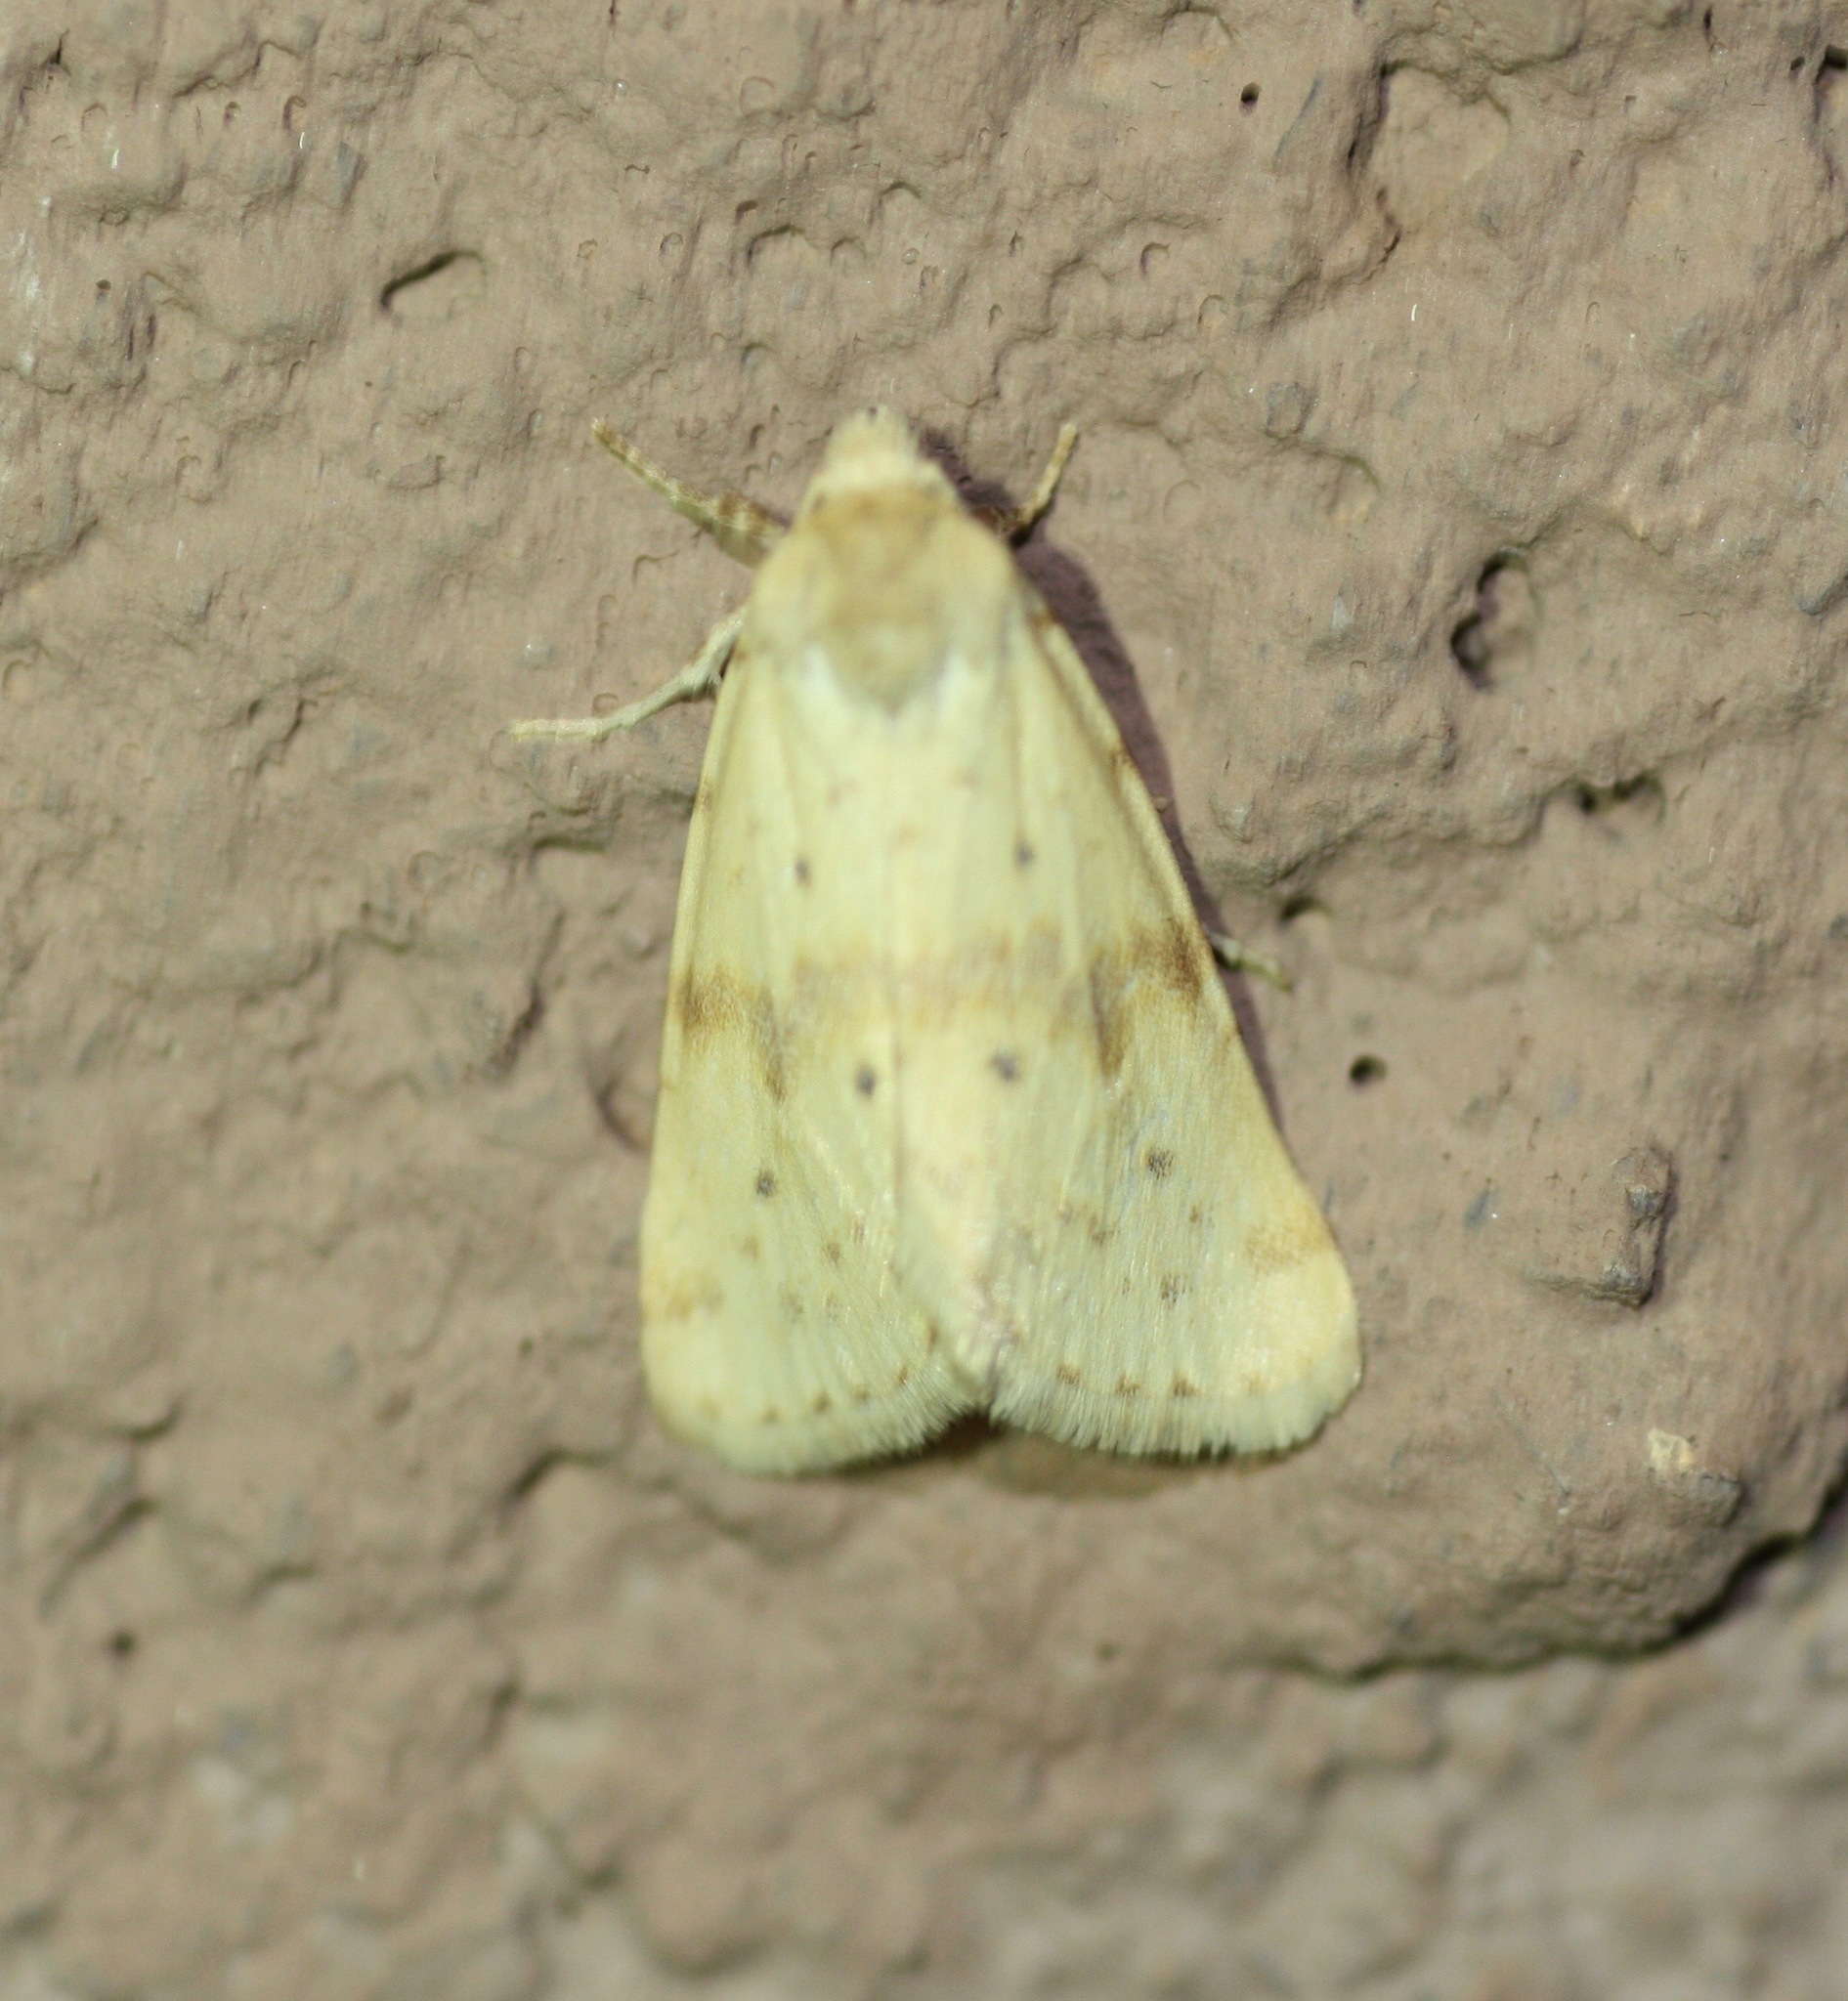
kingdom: Animalia
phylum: Arthropoda
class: Insecta
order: Lepidoptera
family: Noctuidae
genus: Azenia
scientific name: Azenia implora
